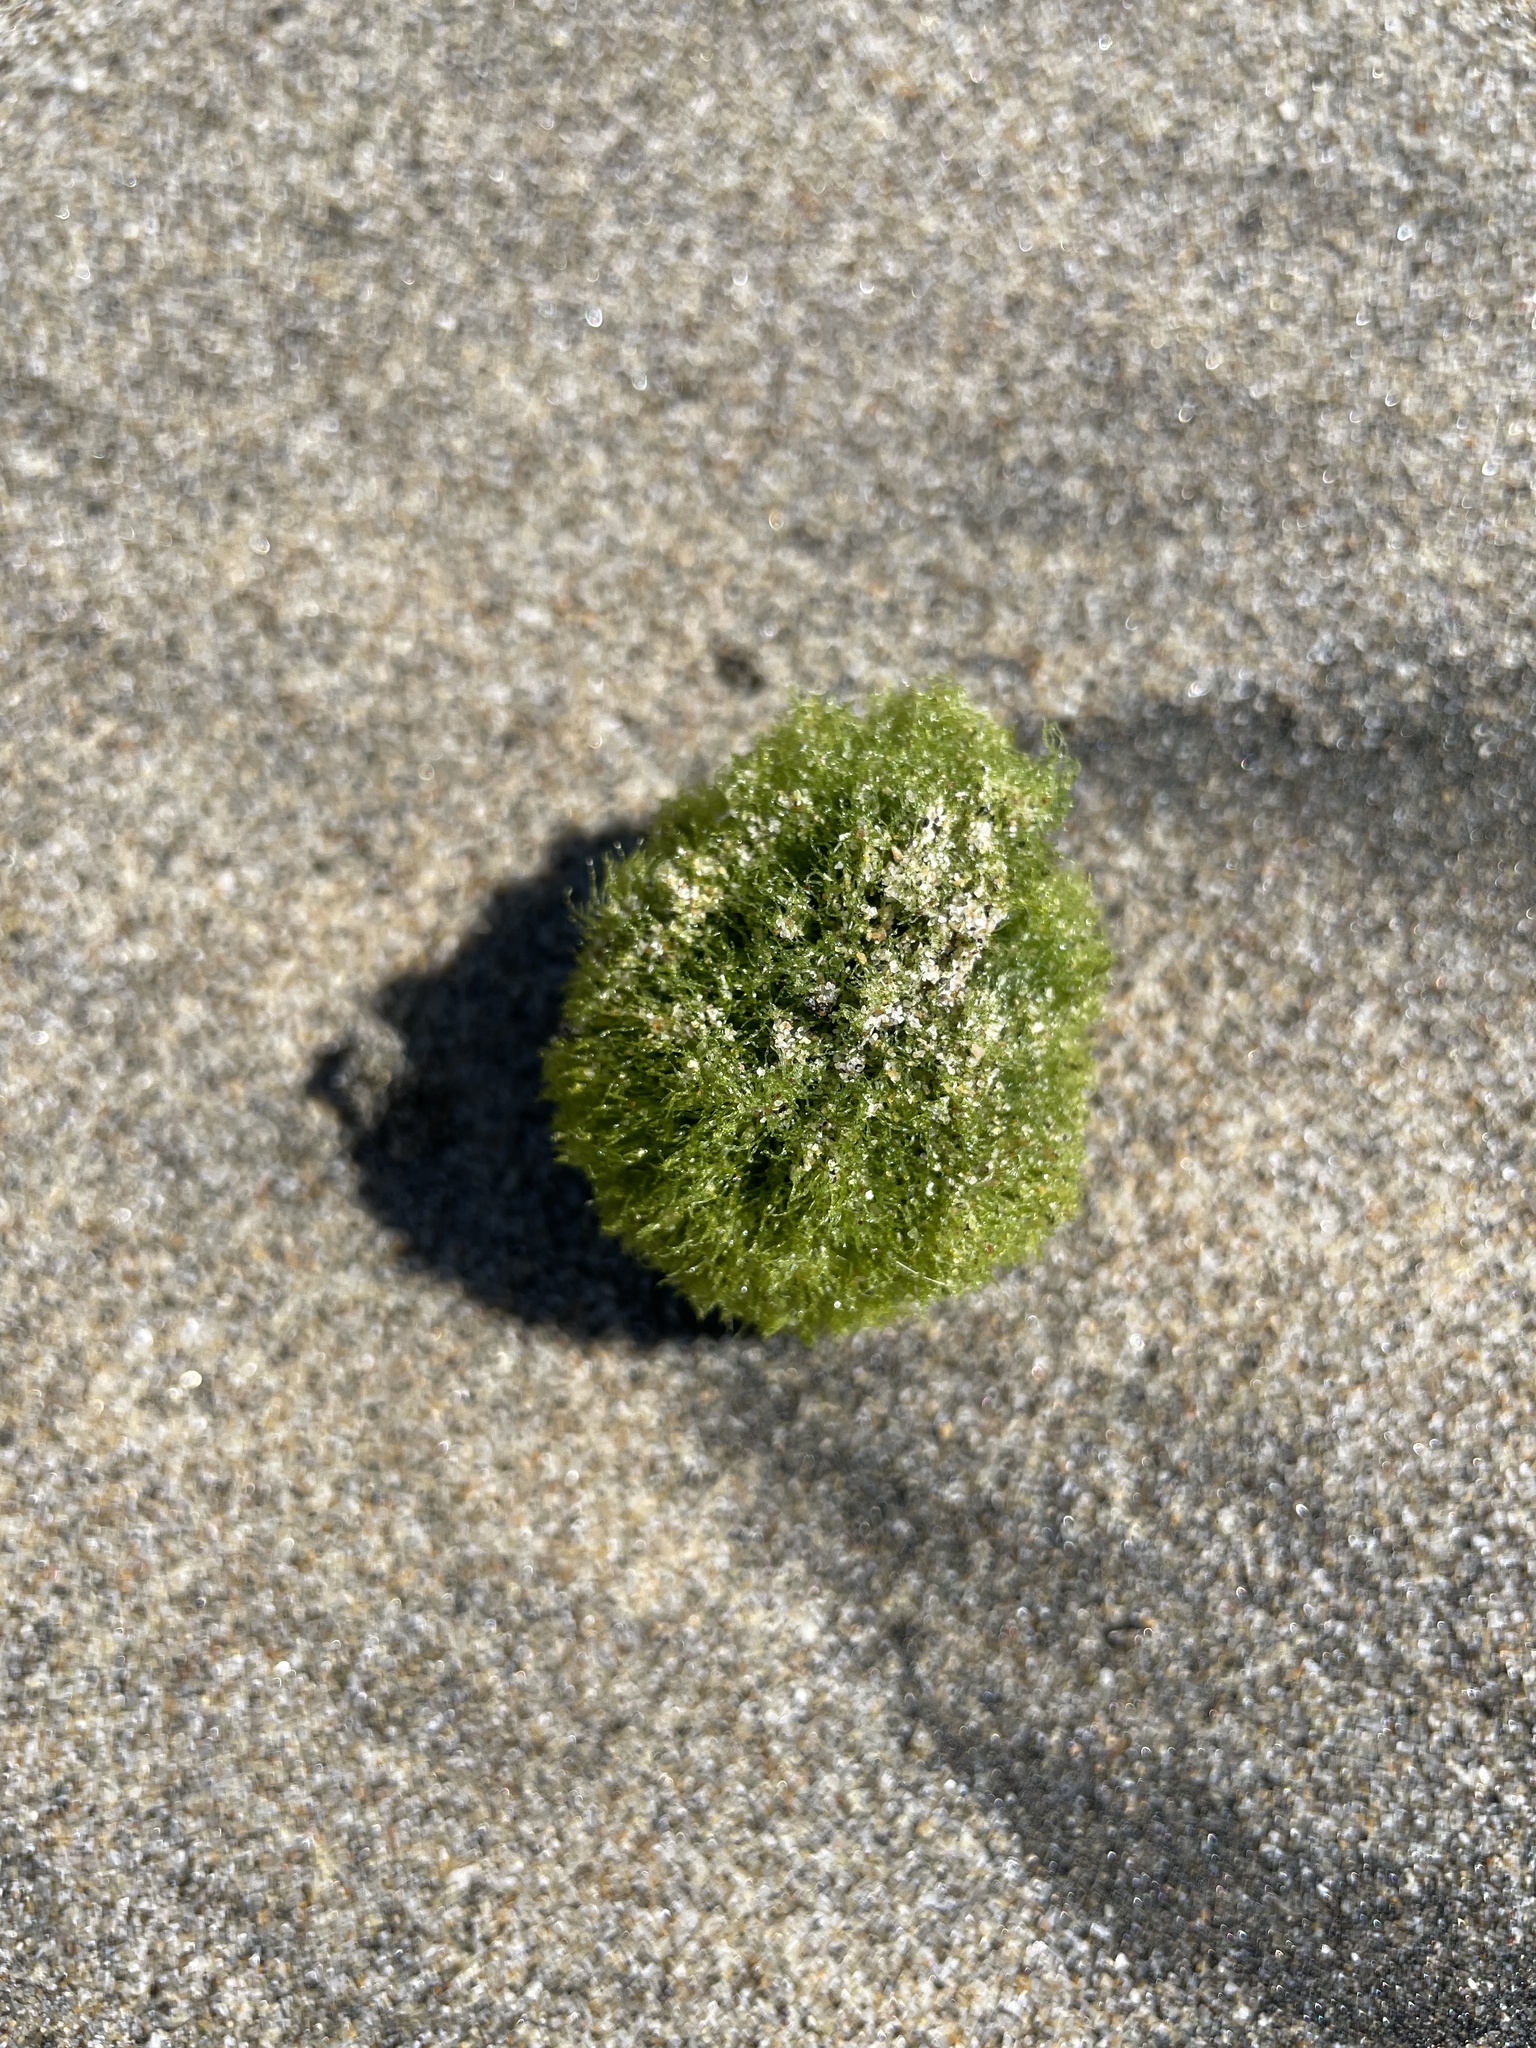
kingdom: Plantae
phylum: Chlorophyta
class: Ulvophyceae
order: Cladophorales
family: Cladophoraceae
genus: Cladophora
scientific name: Cladophora columbiana
